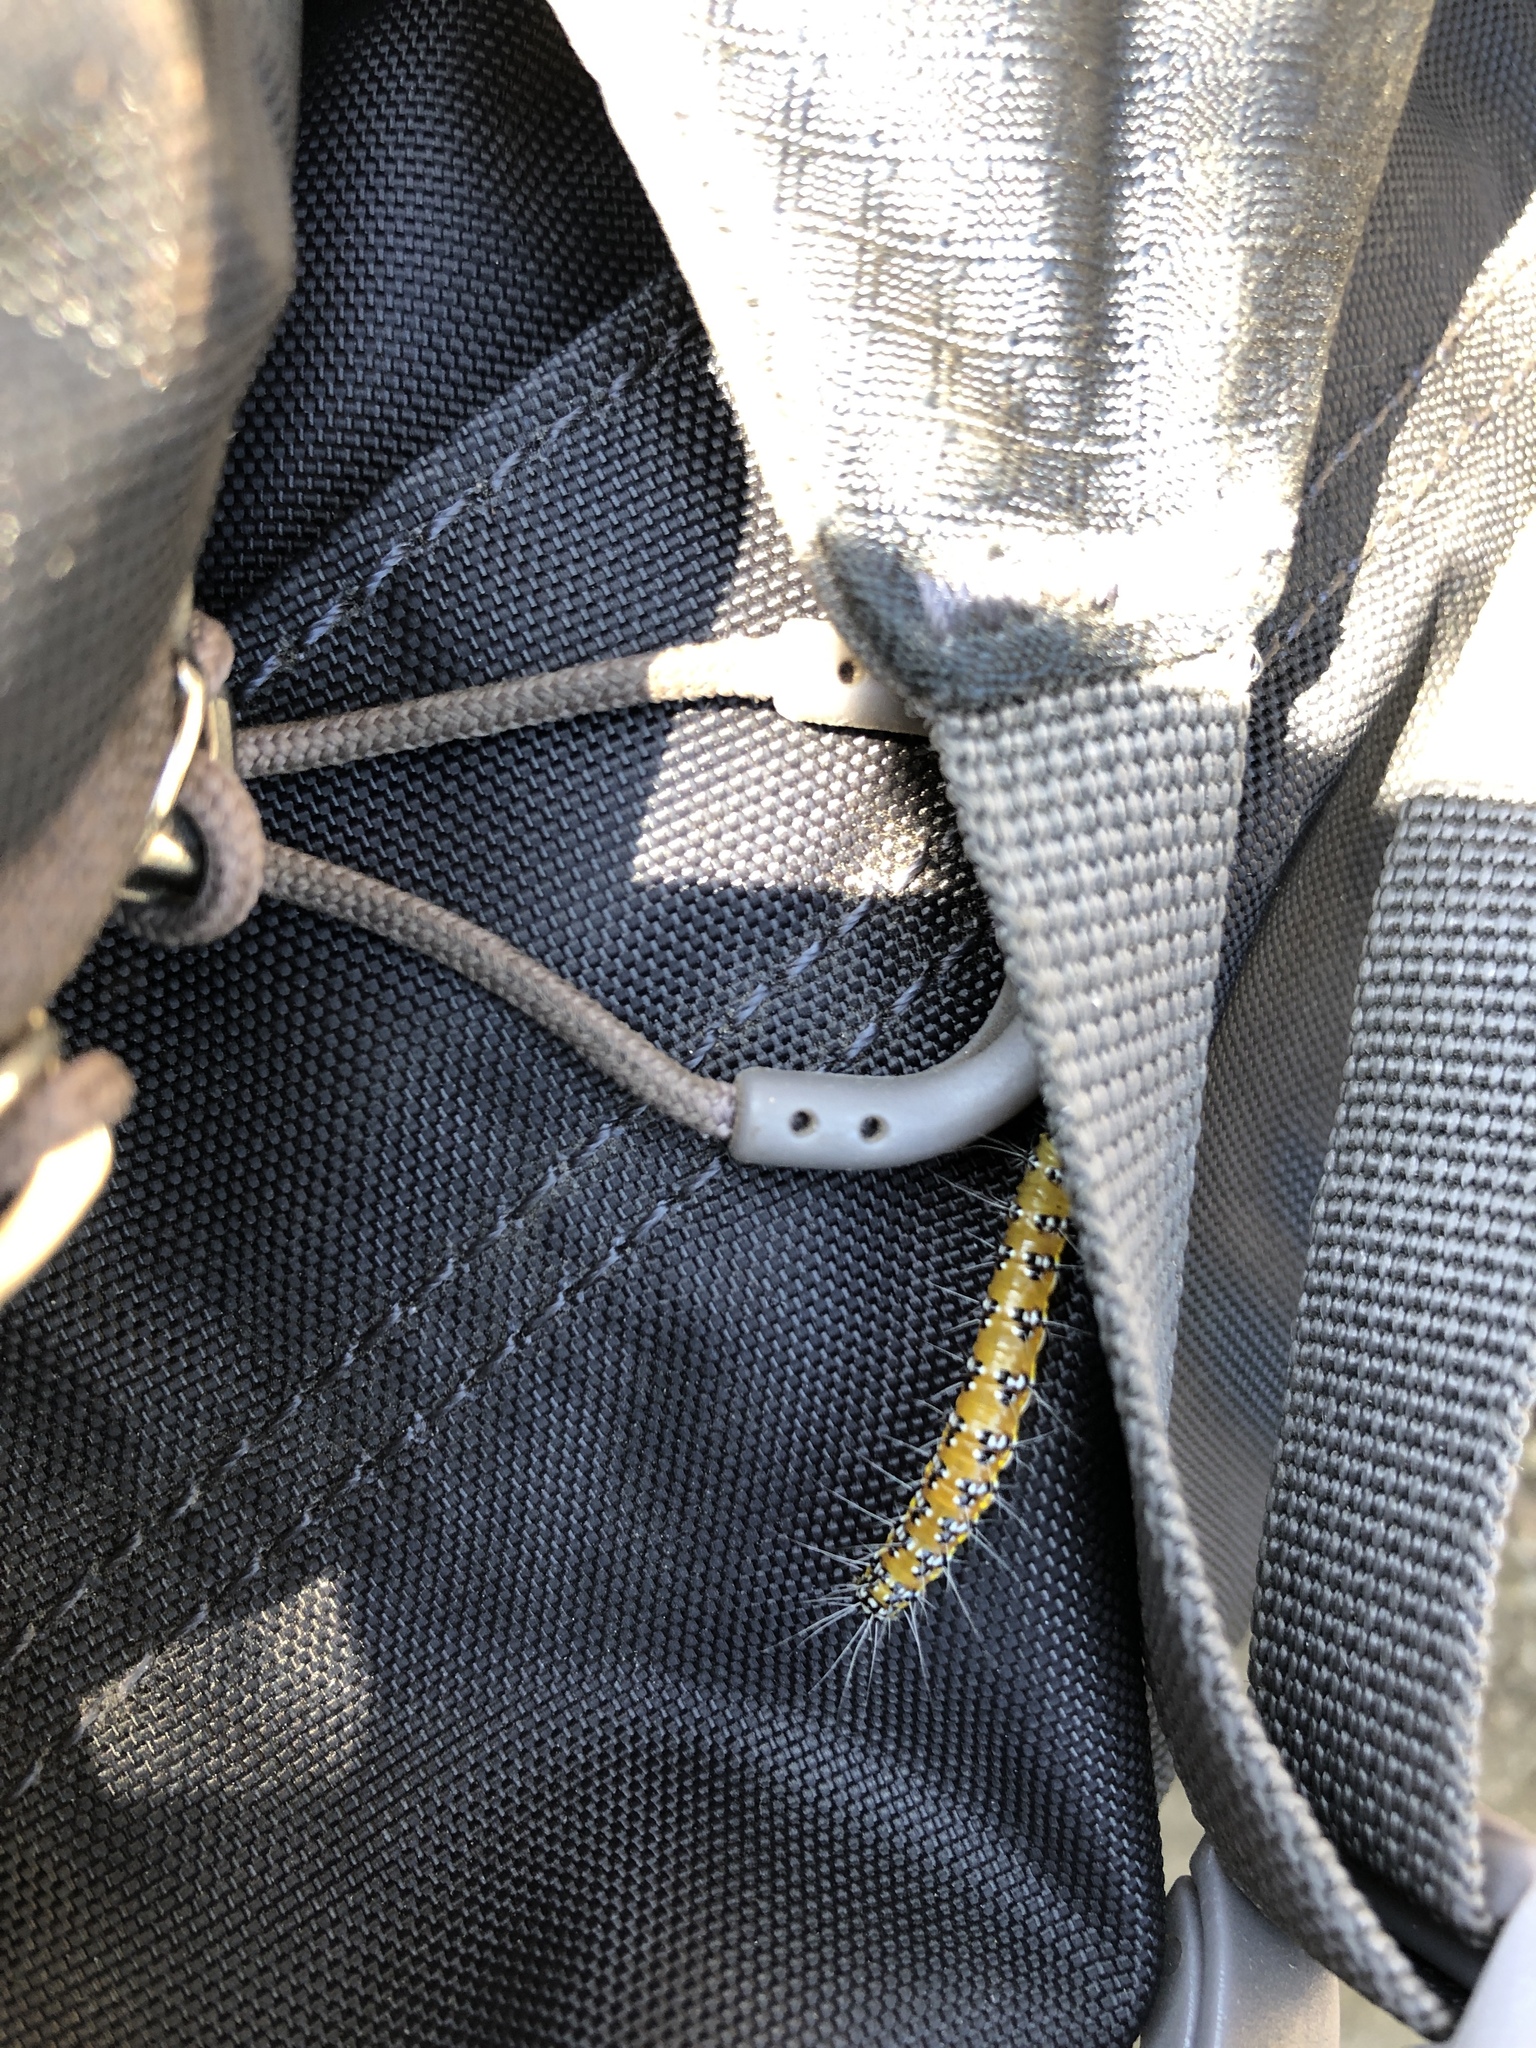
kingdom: Animalia
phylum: Arthropoda
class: Insecta
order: Lepidoptera
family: Crambidae
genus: Uresiphita
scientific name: Uresiphita reversalis
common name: Genista broom moth
